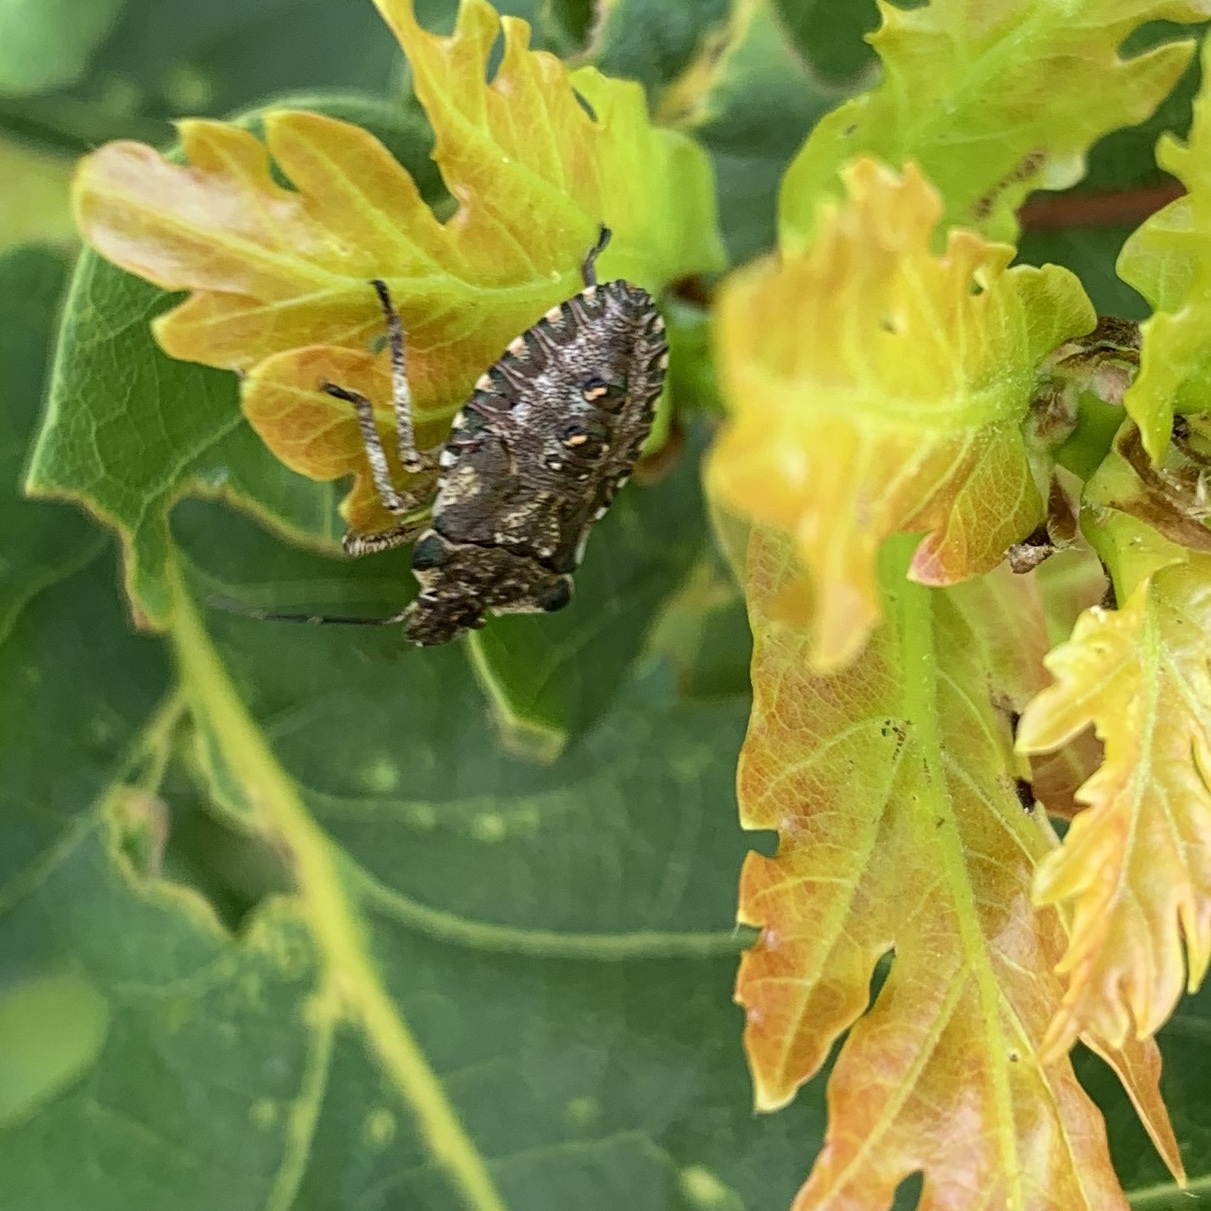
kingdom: Animalia
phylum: Arthropoda
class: Insecta
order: Hemiptera
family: Pentatomidae
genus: Pentatoma
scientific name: Pentatoma rufipes
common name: Forest bug
